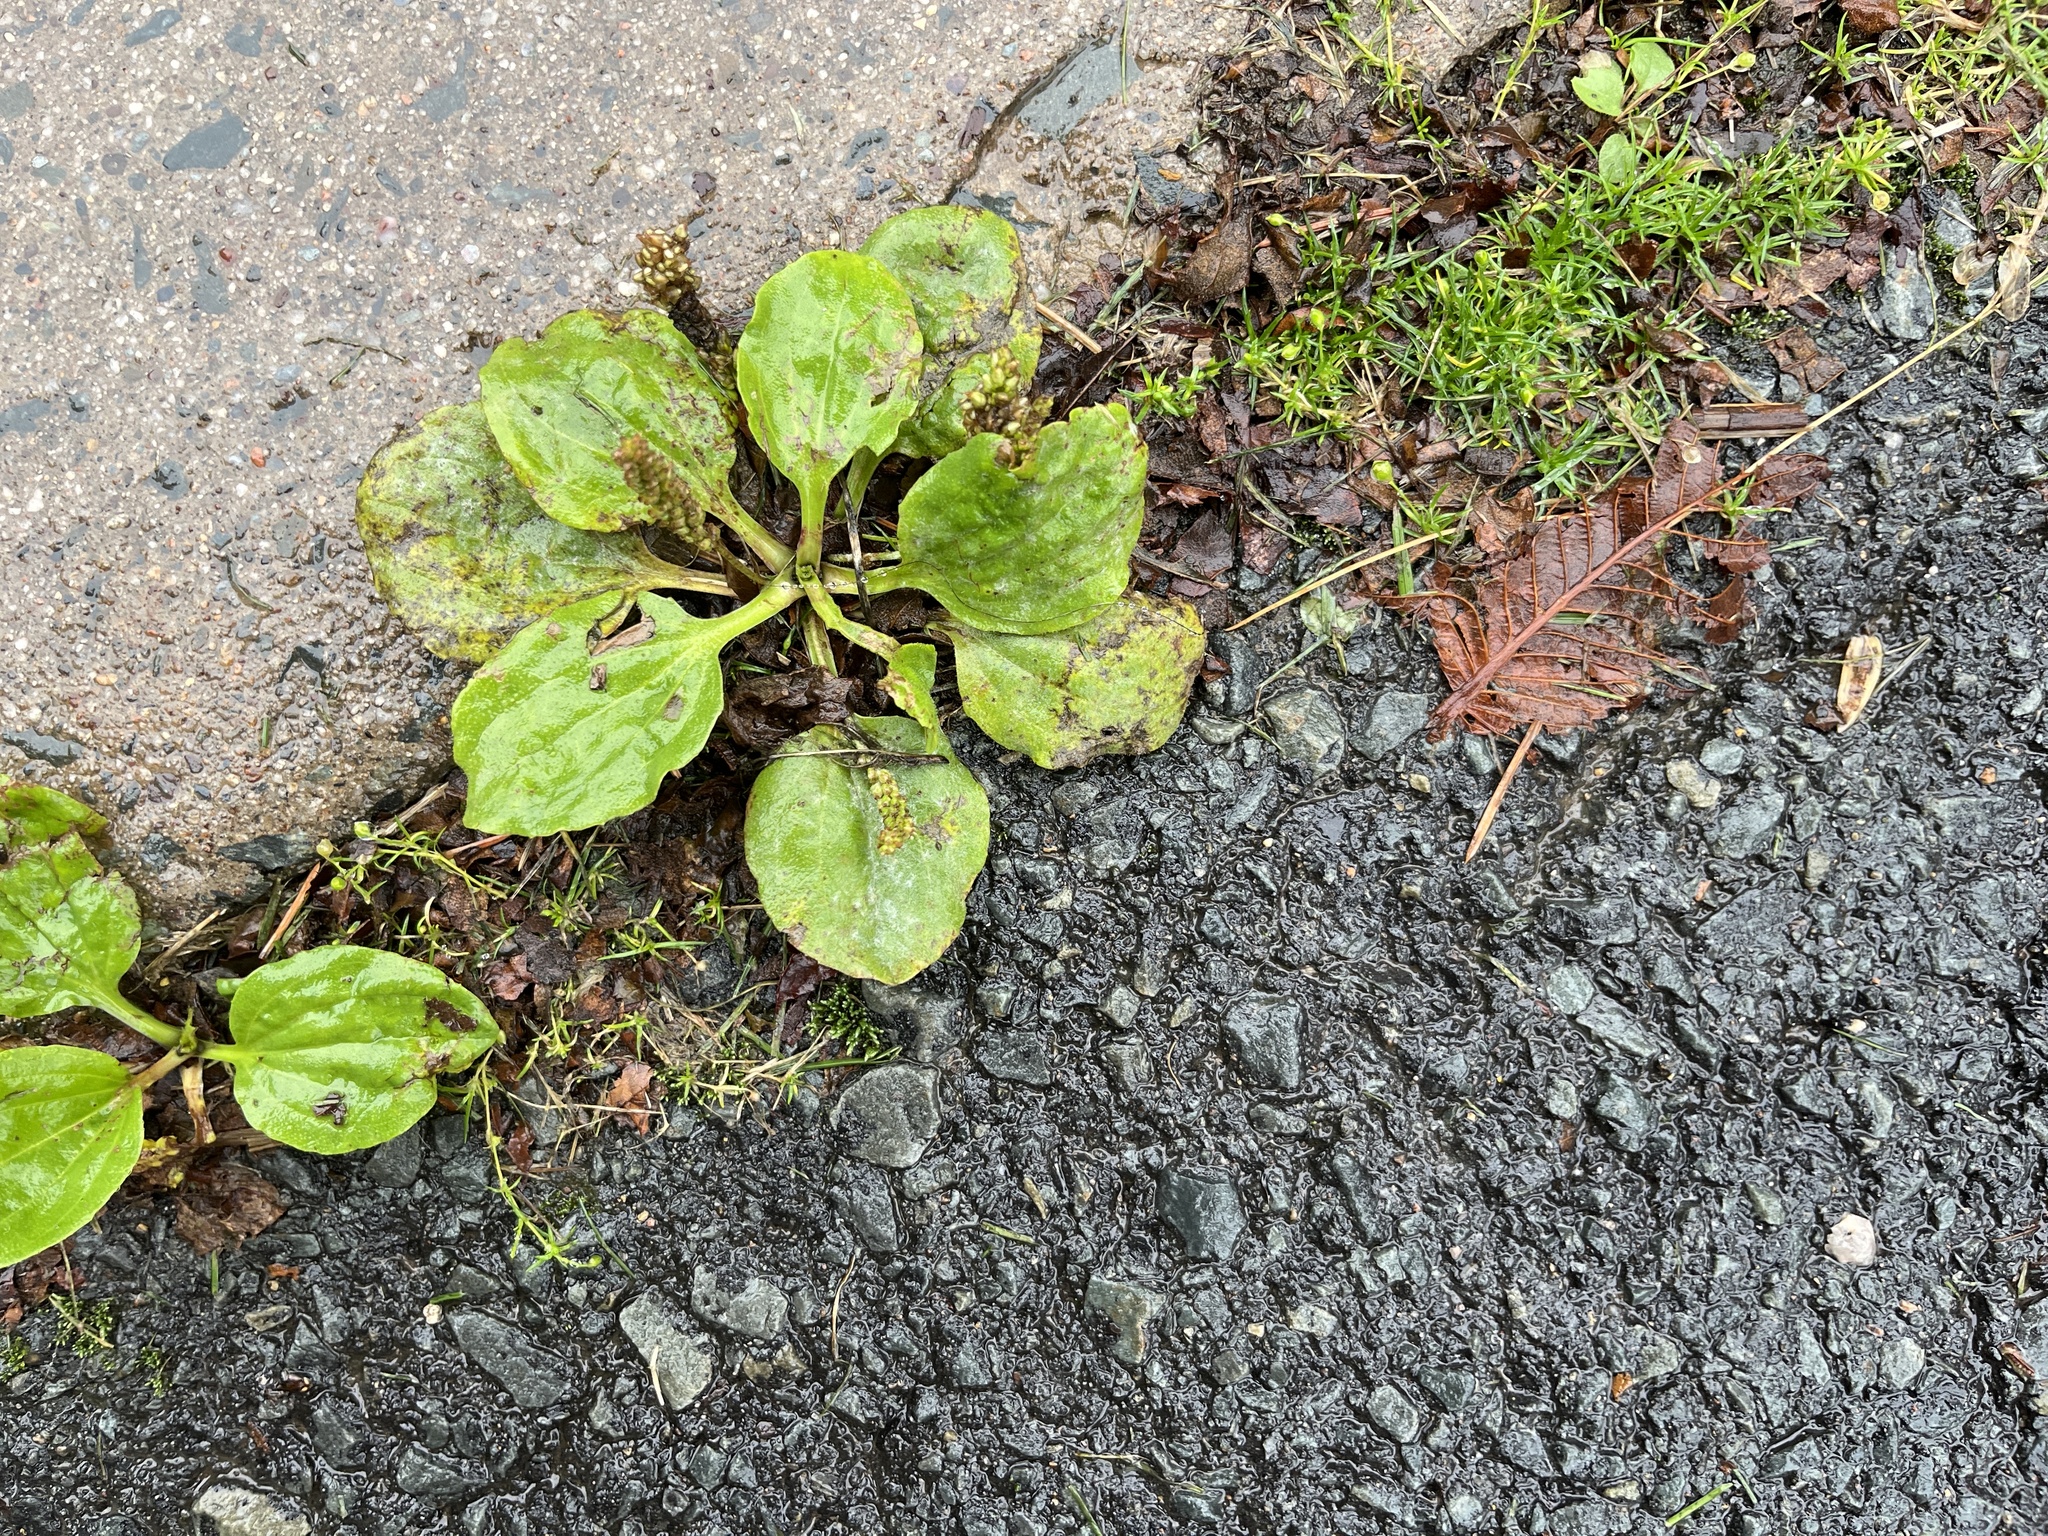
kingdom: Plantae
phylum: Tracheophyta
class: Magnoliopsida
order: Lamiales
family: Plantaginaceae
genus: Plantago
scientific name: Plantago major
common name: Common plantain
